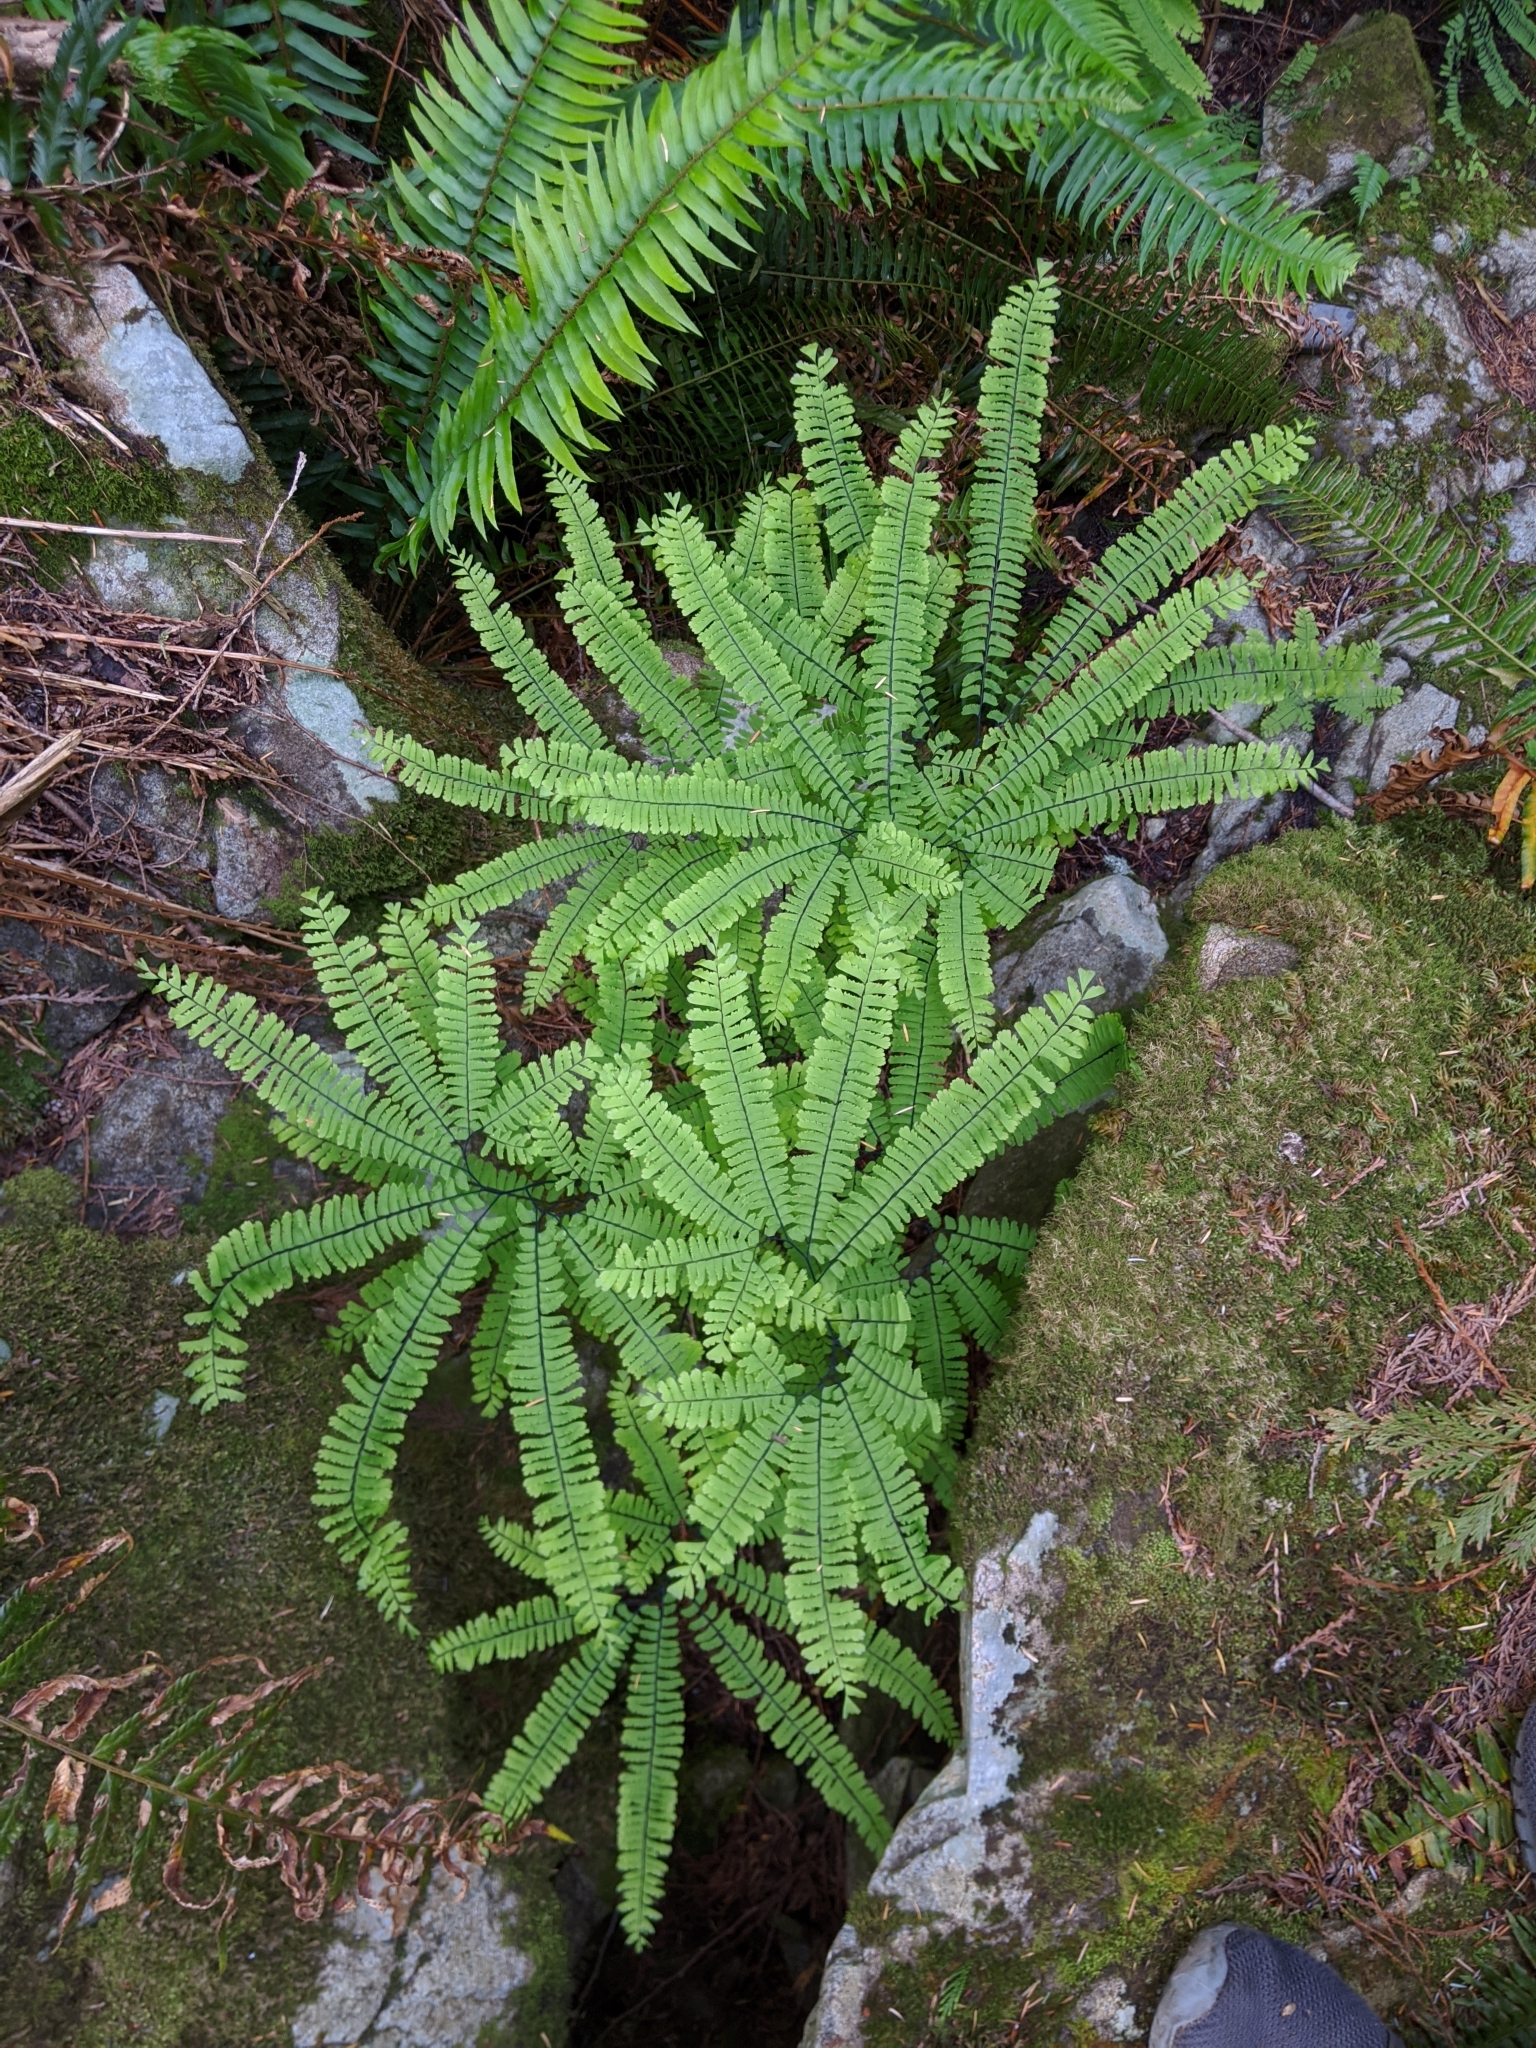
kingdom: Plantae
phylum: Tracheophyta
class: Polypodiopsida
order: Polypodiales
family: Pteridaceae
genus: Adiantum
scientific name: Adiantum aleuticum
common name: Aleutian maidenhair fern
